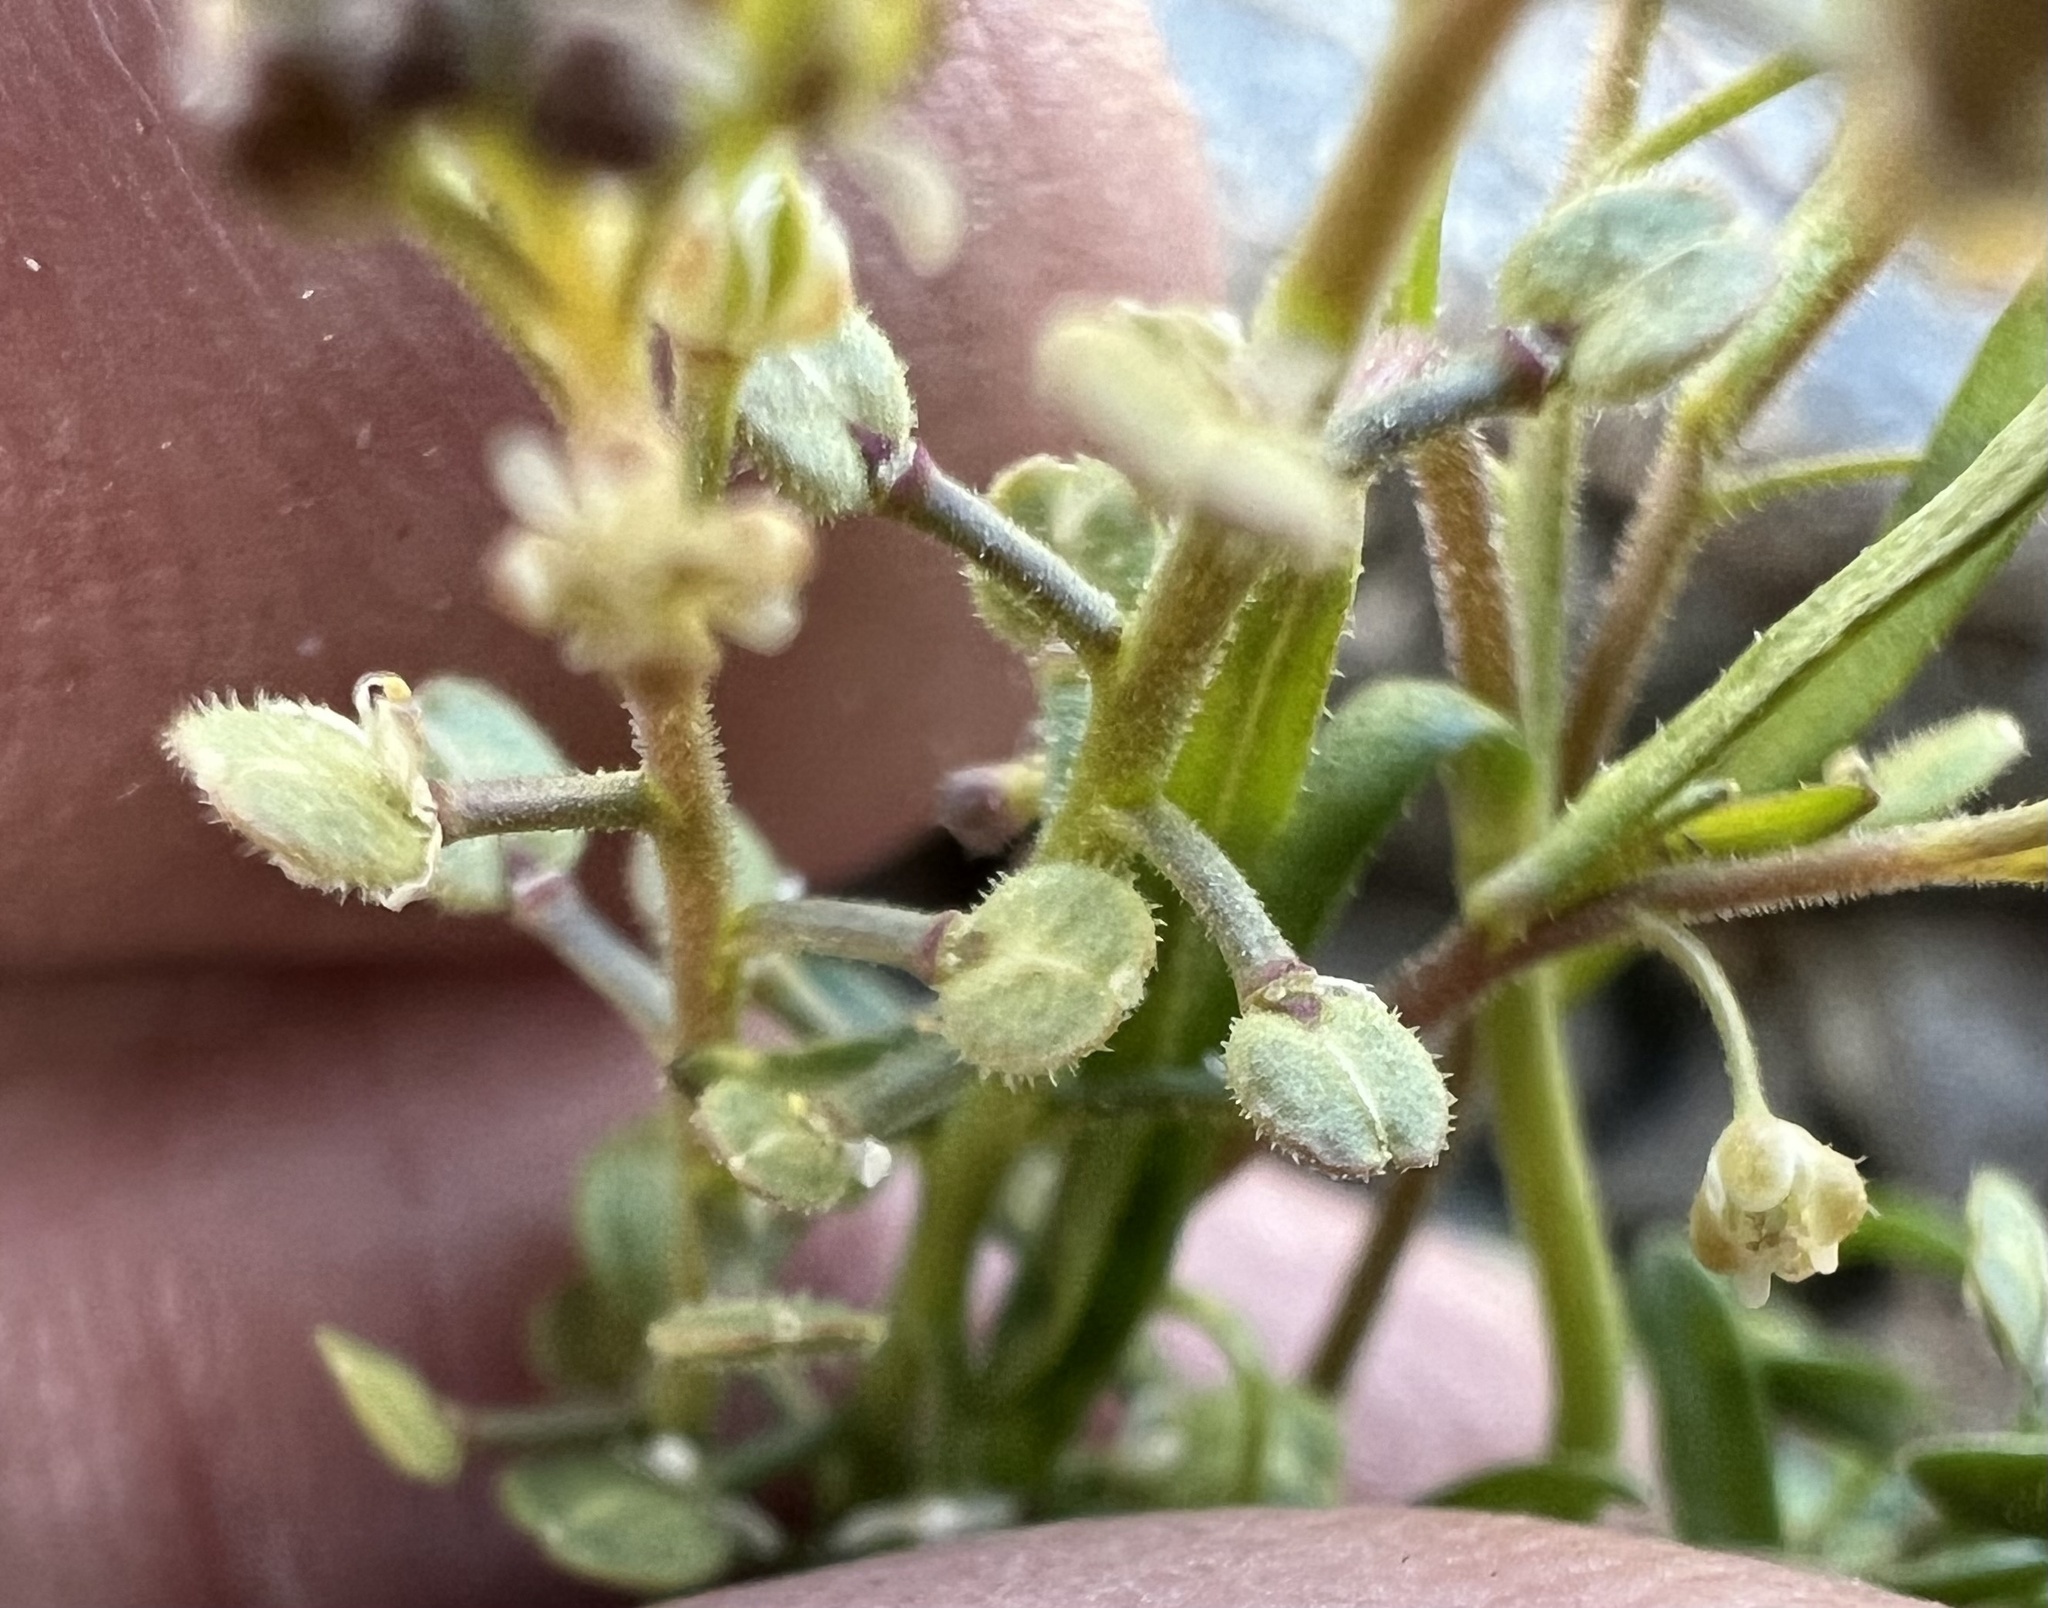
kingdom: Plantae
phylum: Tracheophyta
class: Magnoliopsida
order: Brassicales
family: Brassicaceae
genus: Lepidium
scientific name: Lepidium lasiocarpum
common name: Hairy-pod pepperwort
